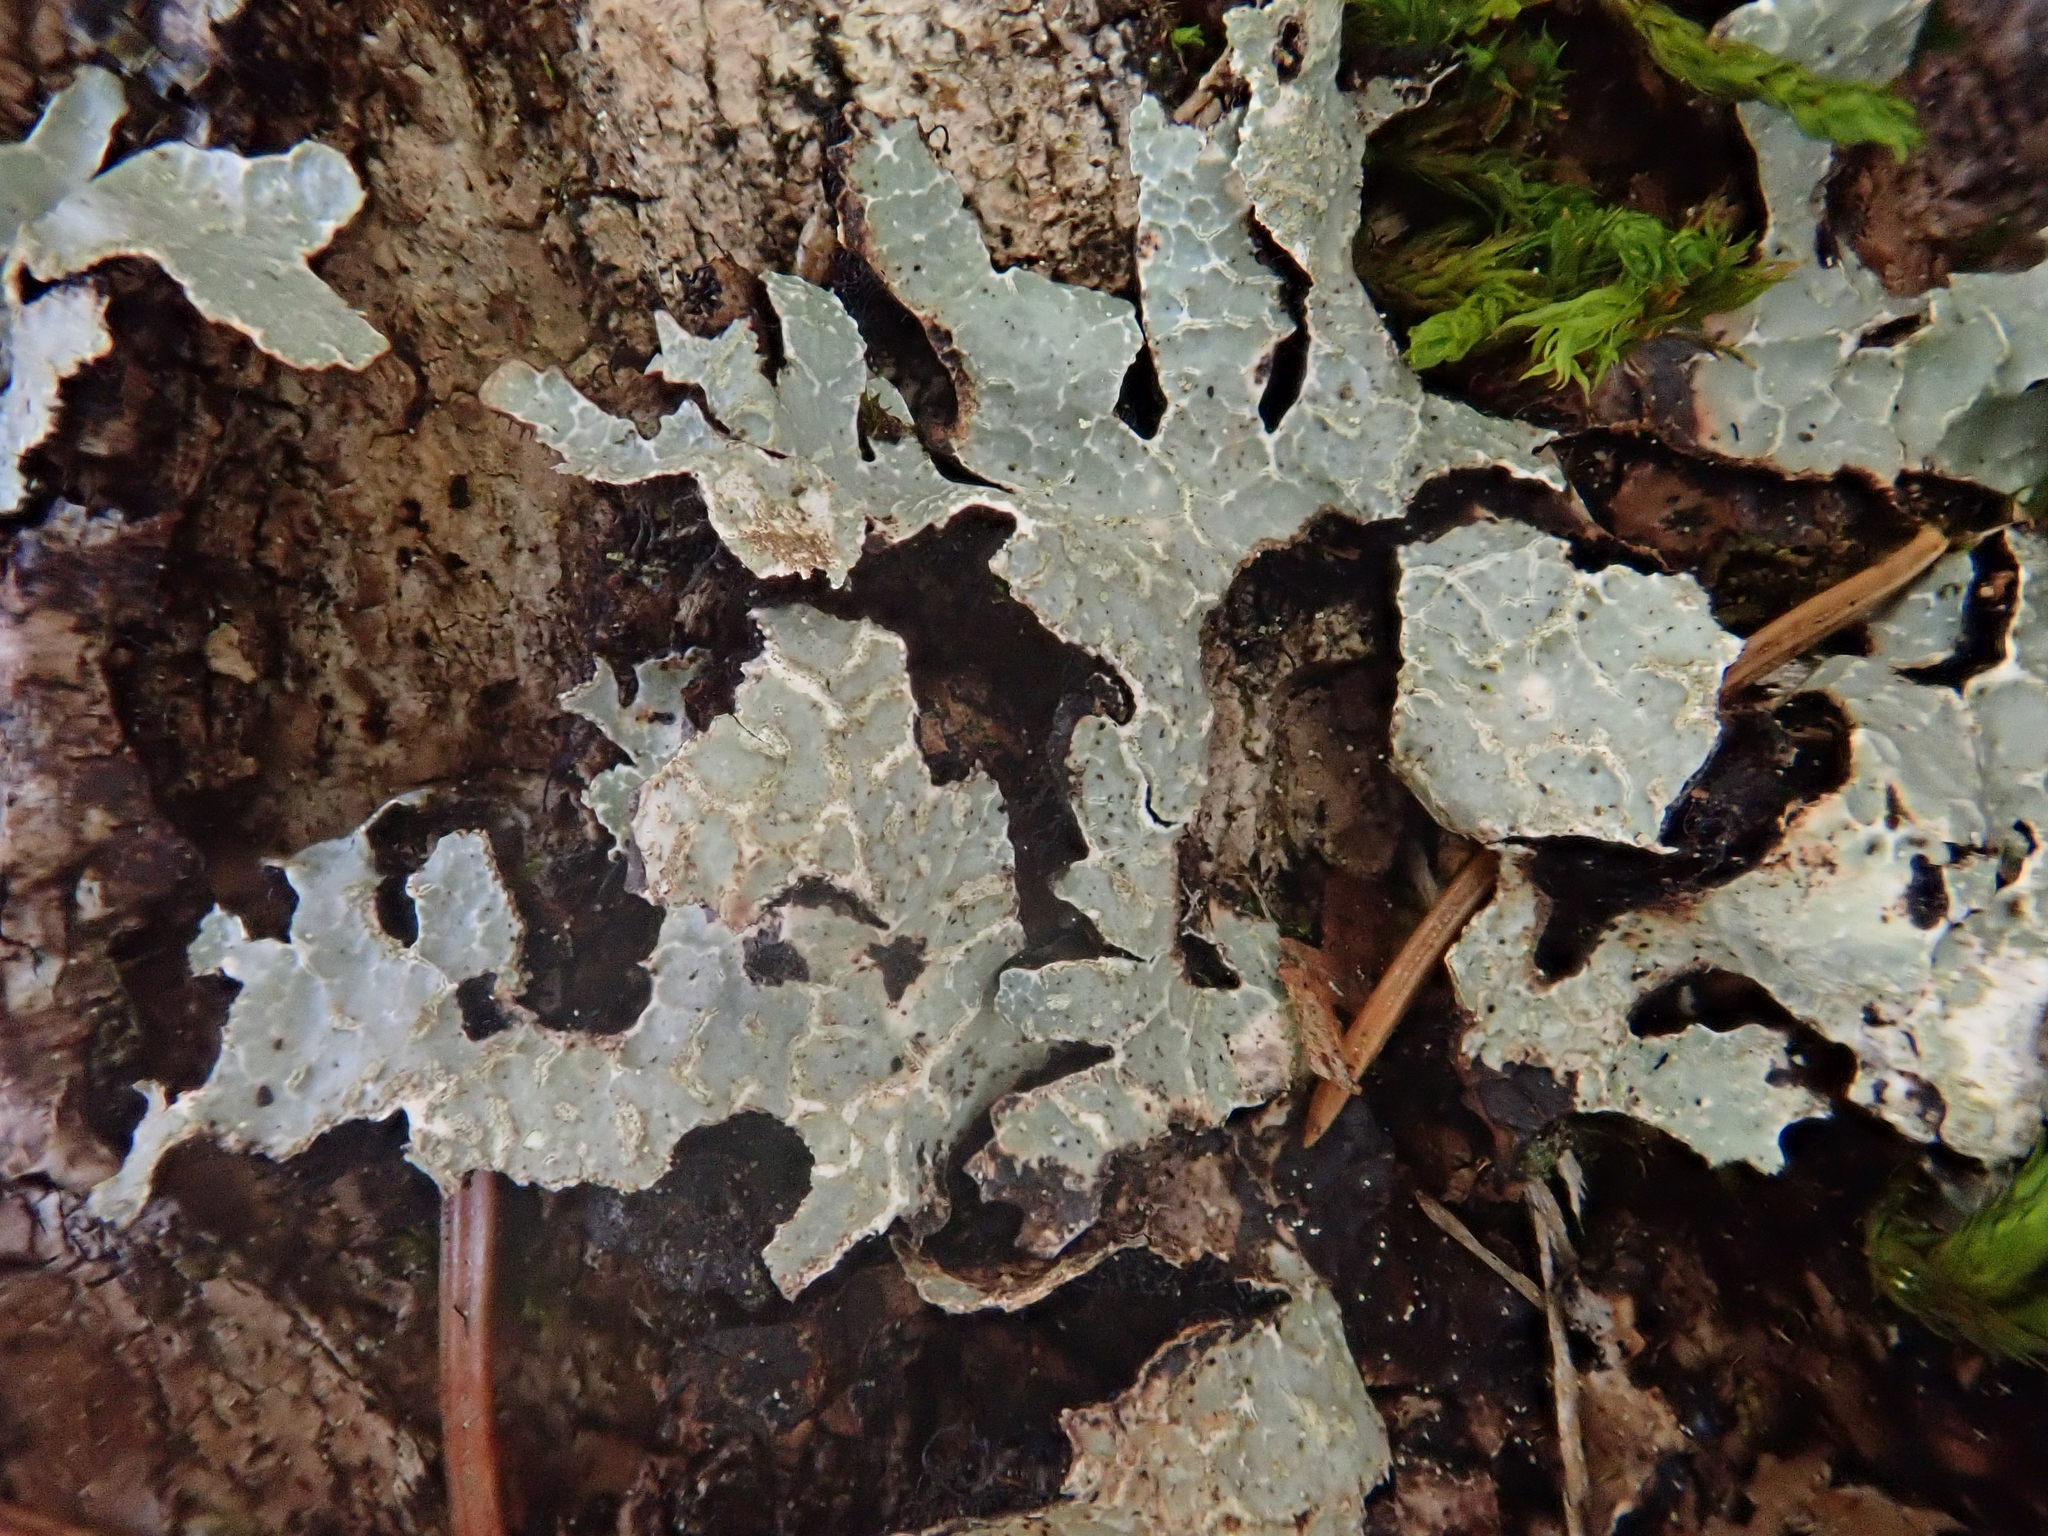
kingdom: Fungi
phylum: Ascomycota
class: Lecanoromycetes
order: Lecanorales
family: Parmeliaceae
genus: Parmelia
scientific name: Parmelia sulcata
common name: Netted shield lichen
